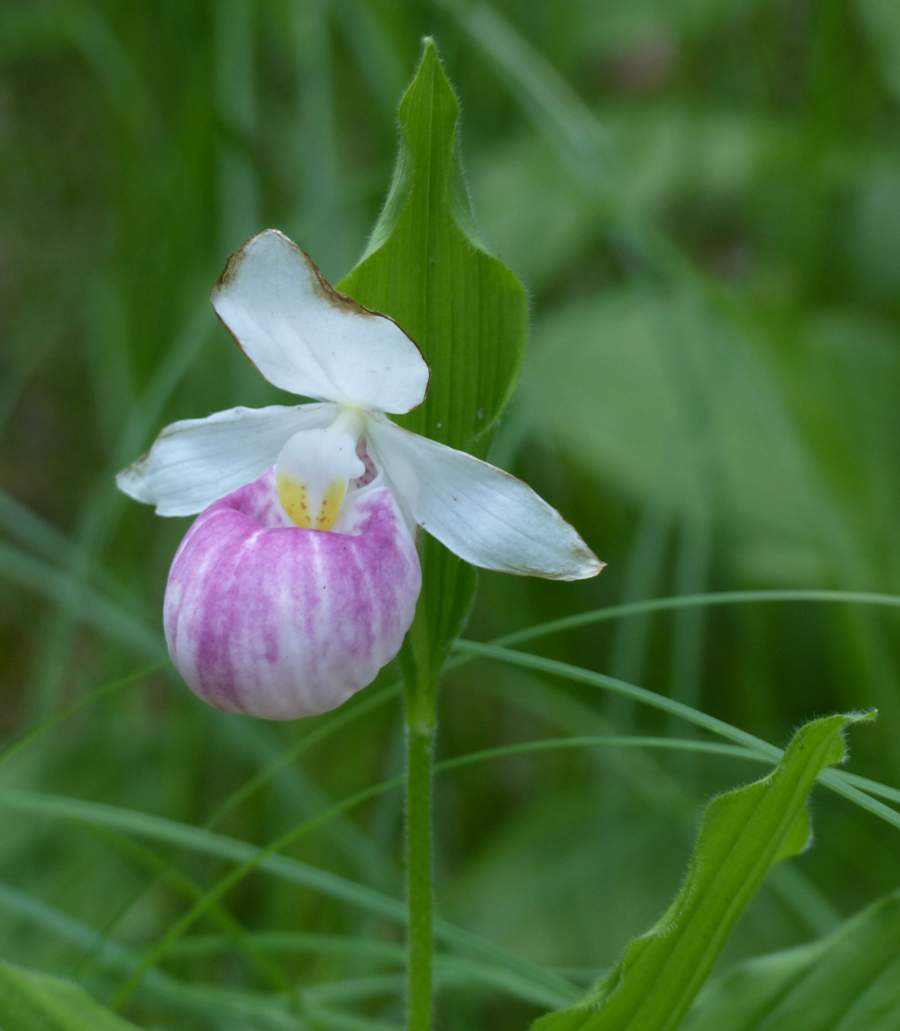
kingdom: Plantae
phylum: Tracheophyta
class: Liliopsida
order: Asparagales
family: Orchidaceae
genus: Cypripedium
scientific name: Cypripedium reginae
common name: Queen lady's-slipper
